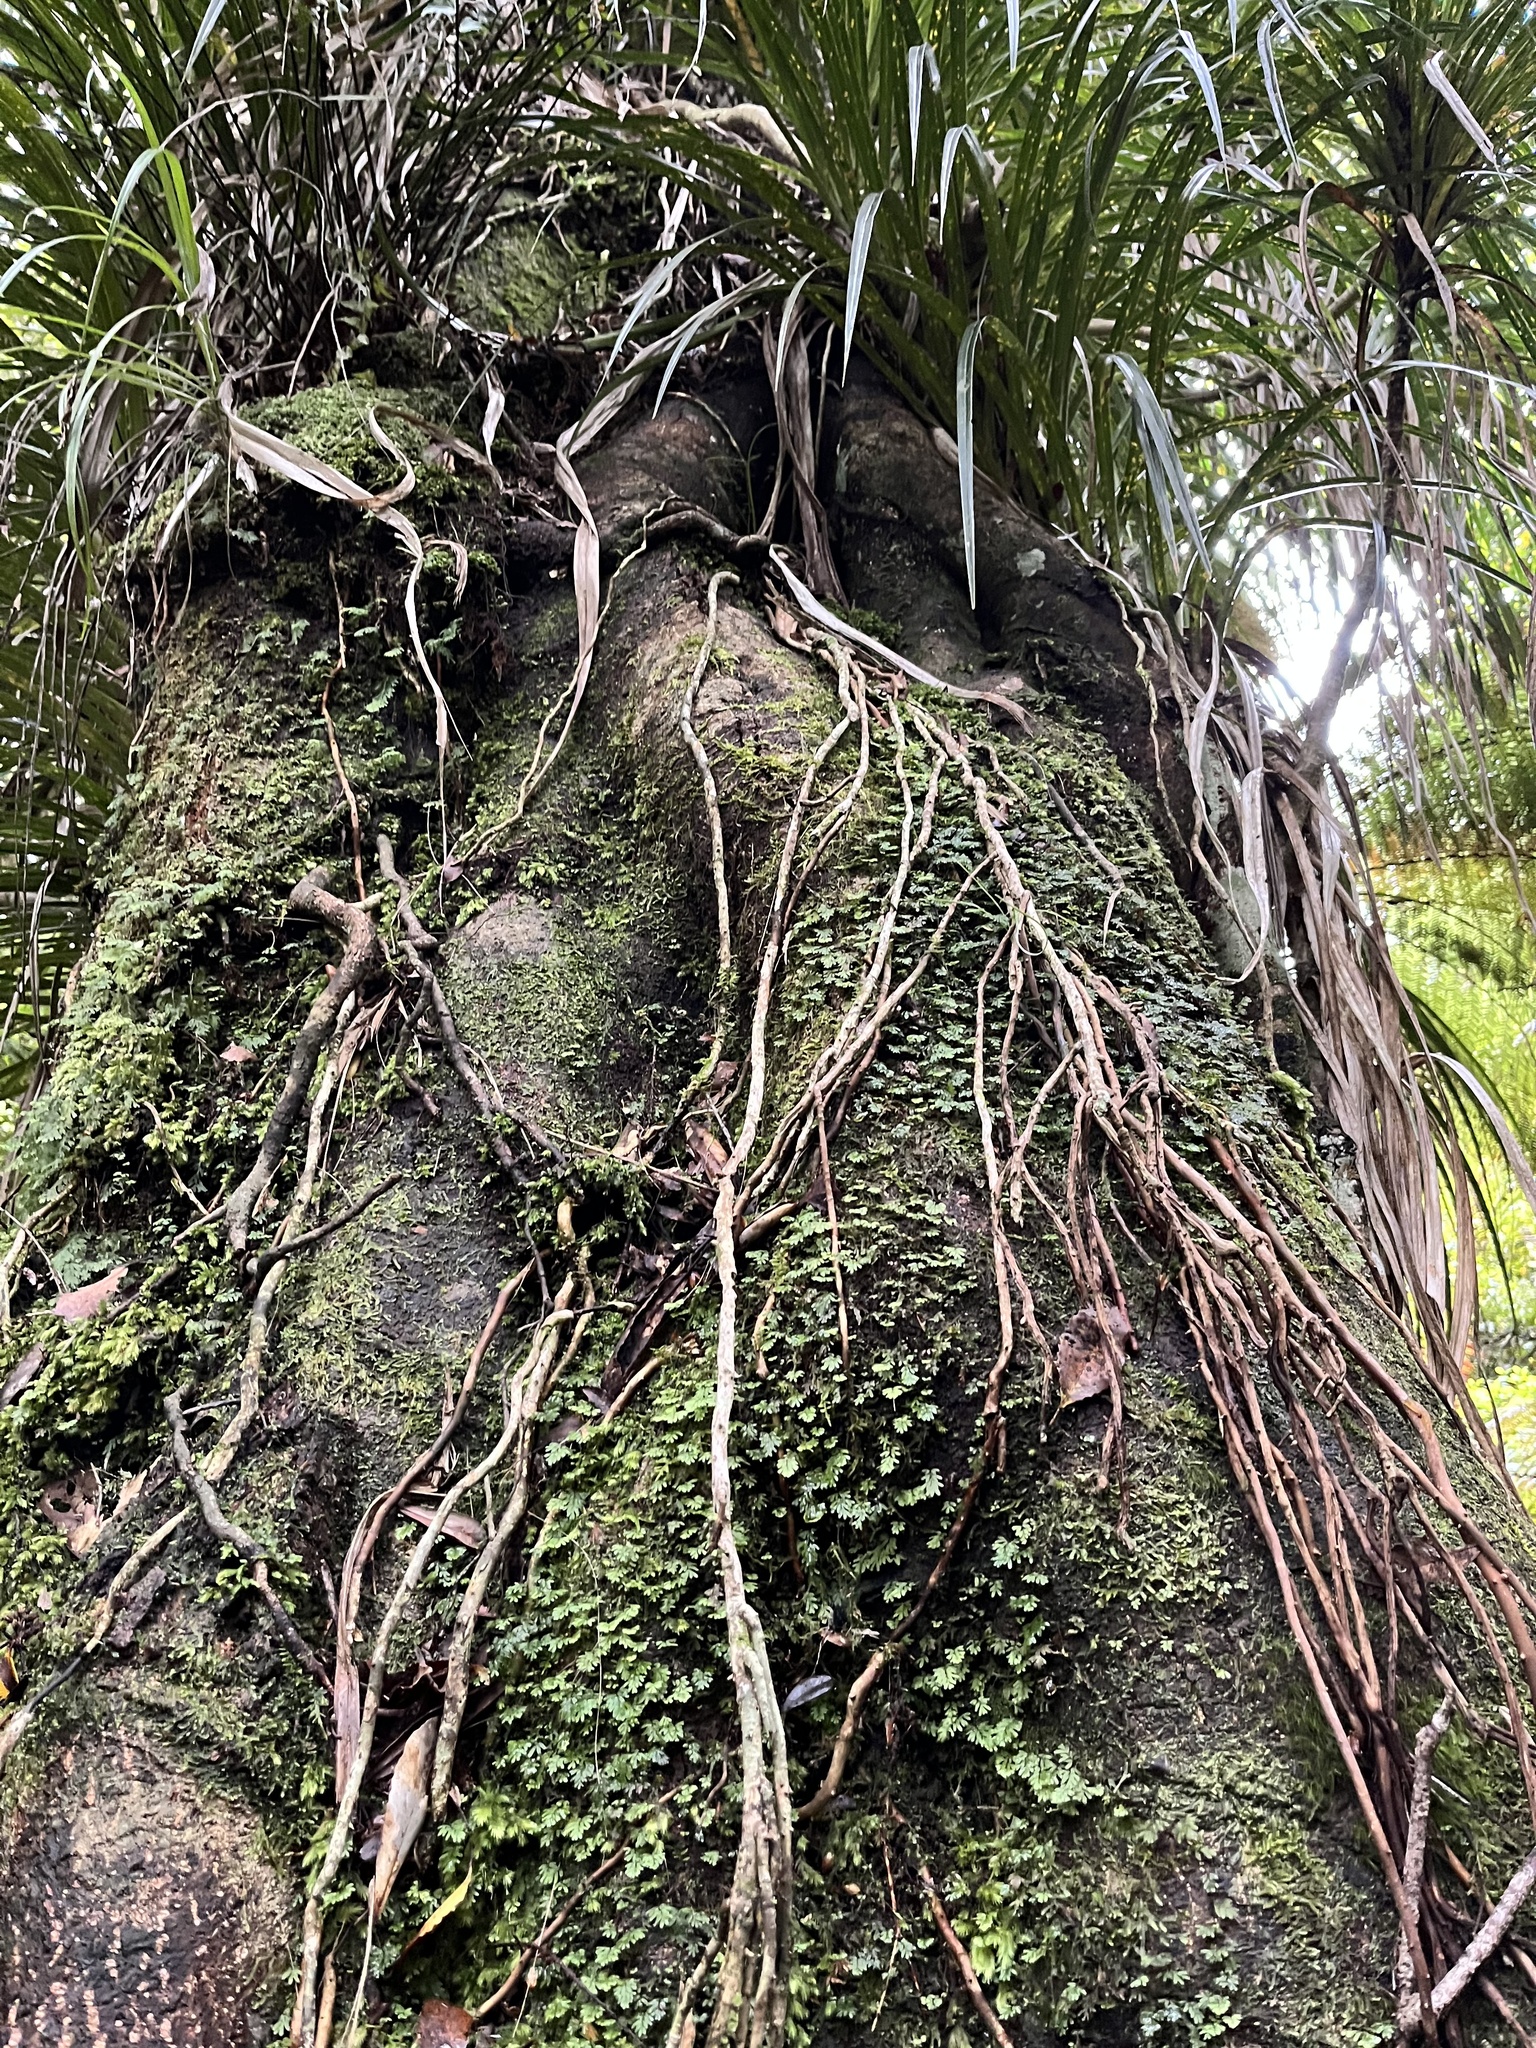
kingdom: Plantae
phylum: Tracheophyta
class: Liliopsida
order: Pandanales
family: Pandanaceae
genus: Freycinetia
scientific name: Freycinetia banksii
